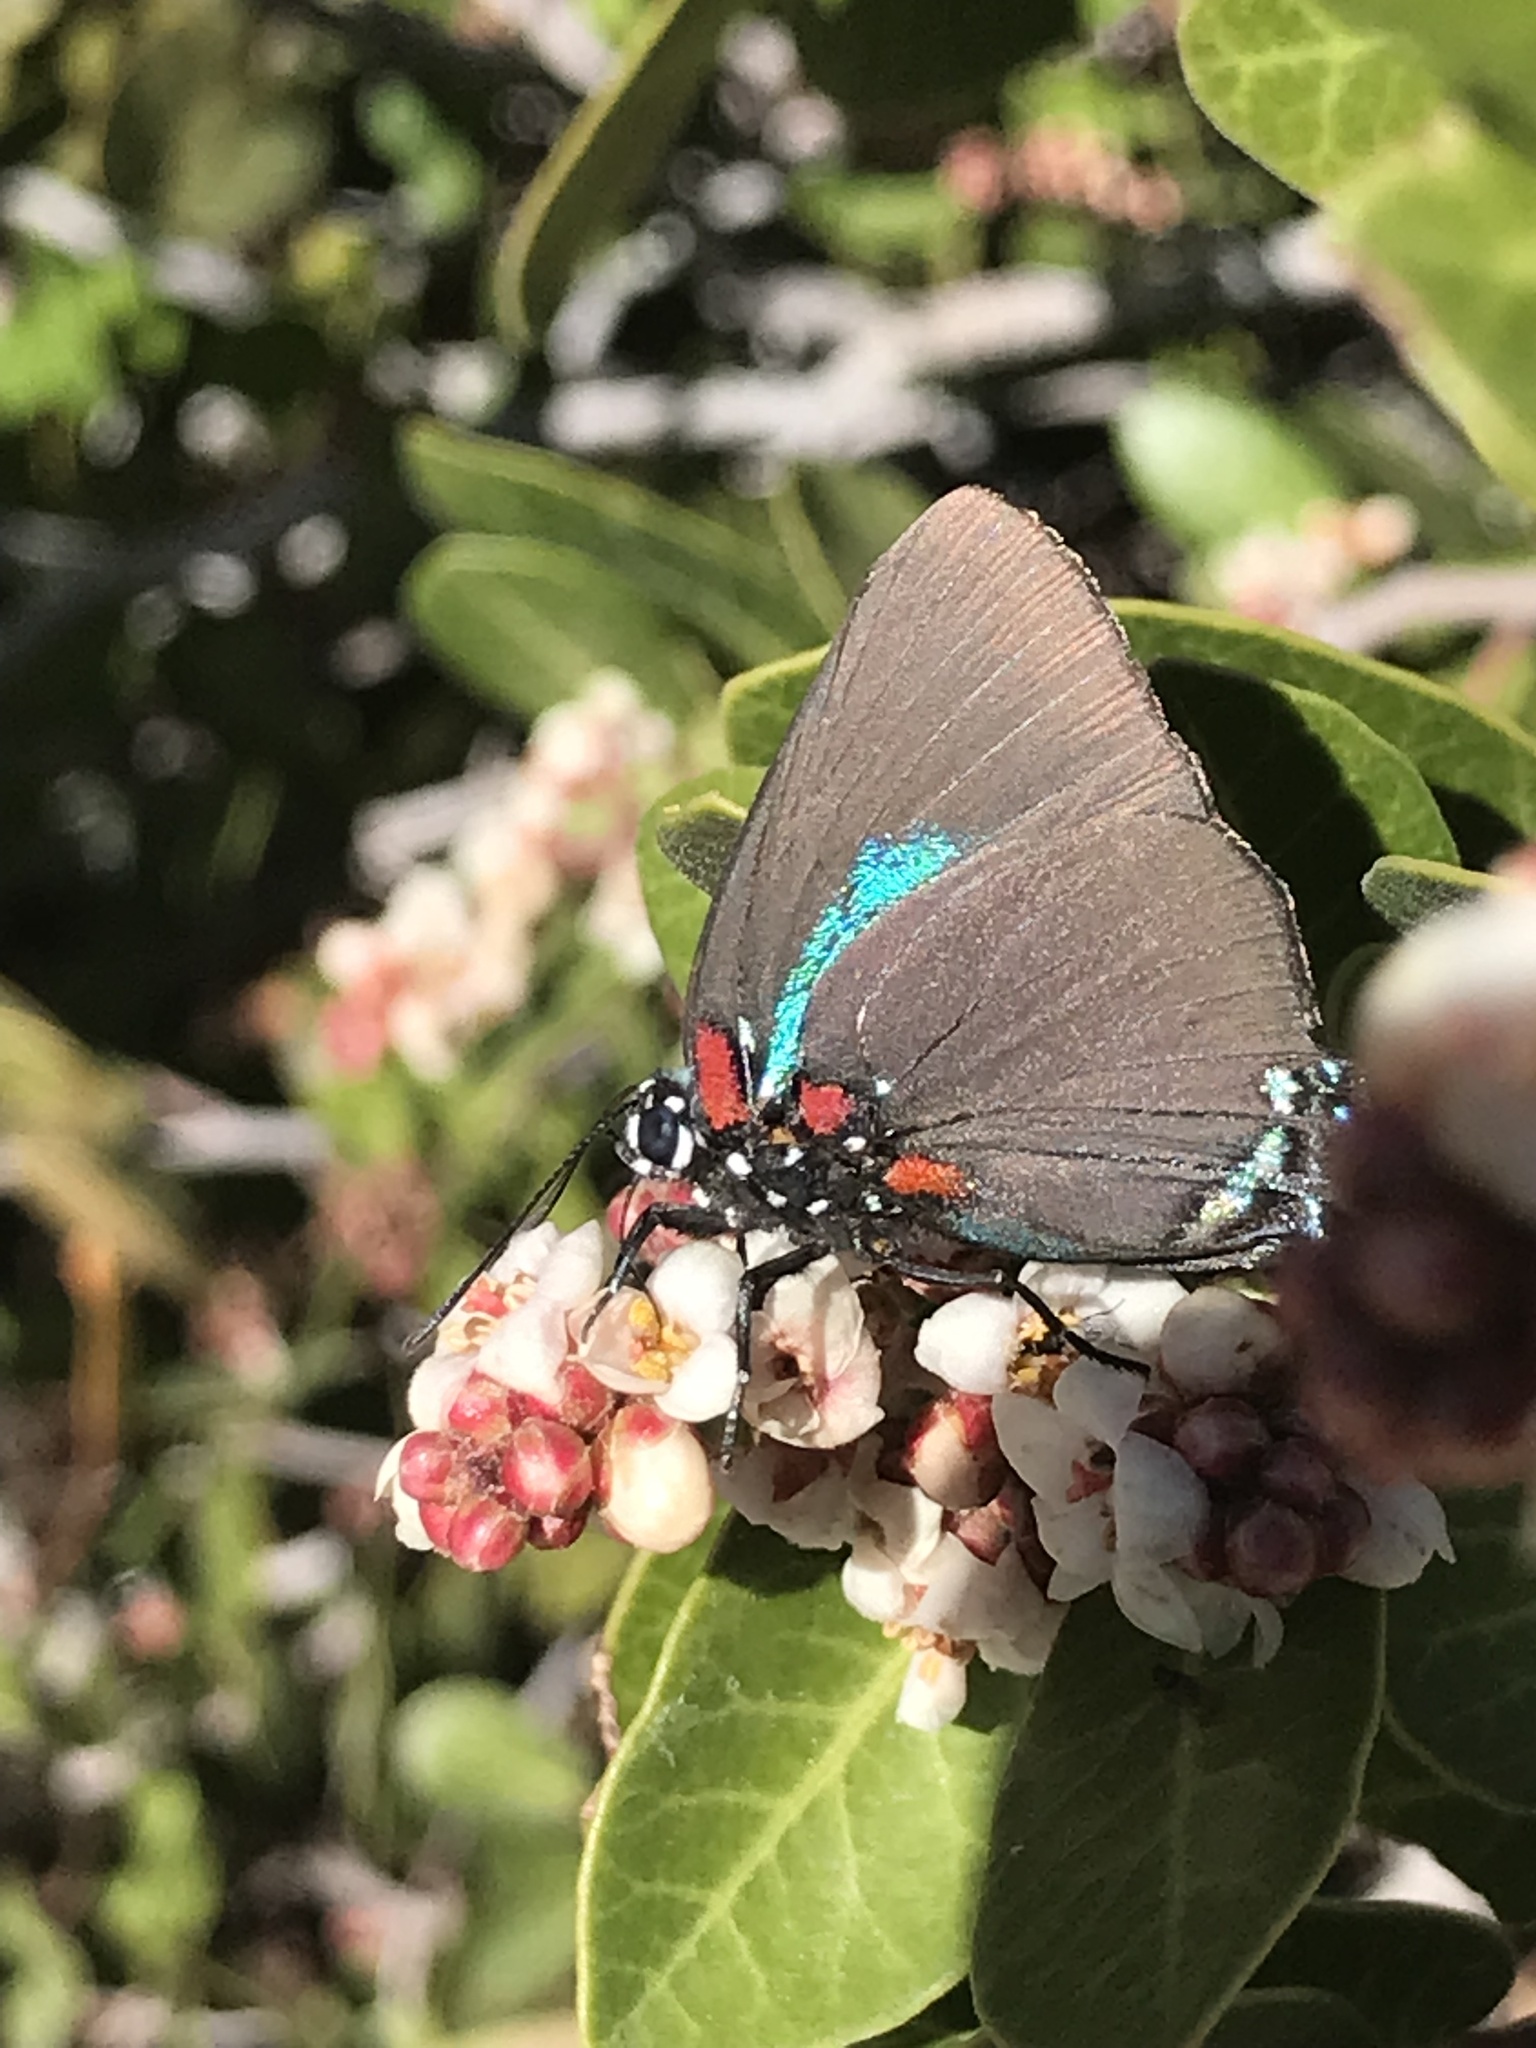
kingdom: Animalia
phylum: Arthropoda
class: Insecta
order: Lepidoptera
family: Lycaenidae
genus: Atlides
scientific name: Atlides halesus
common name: Great purple hairstreak
